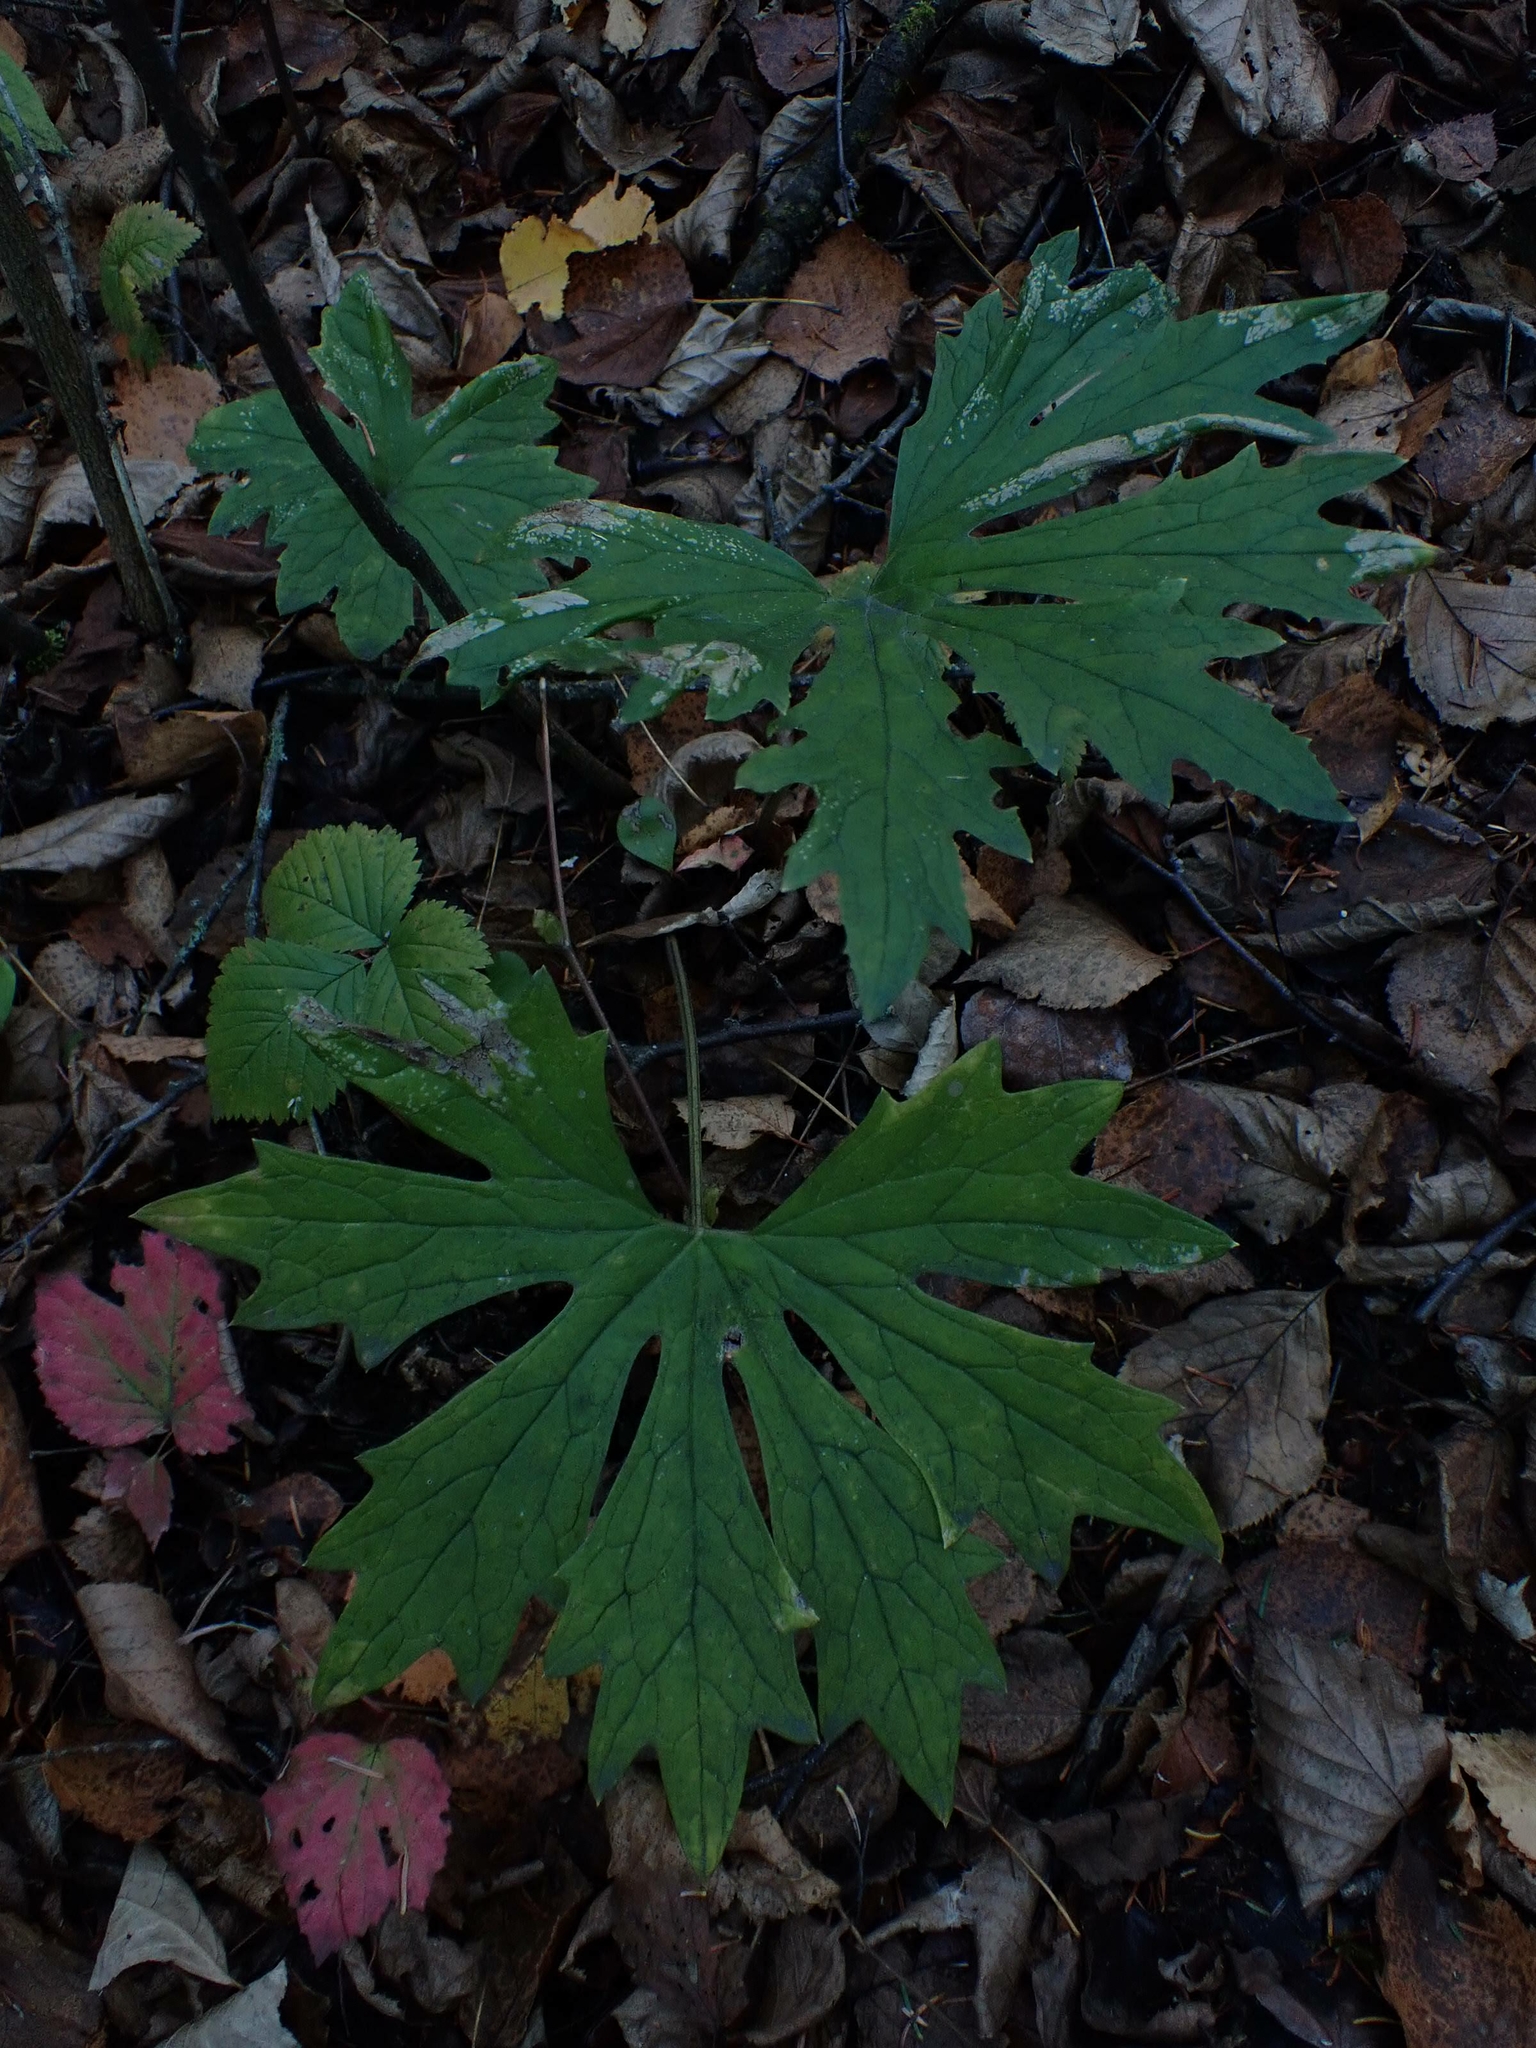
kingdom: Plantae
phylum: Tracheophyta
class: Magnoliopsida
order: Asterales
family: Asteraceae
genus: Petasites
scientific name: Petasites frigidus
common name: Arctic butterbur
